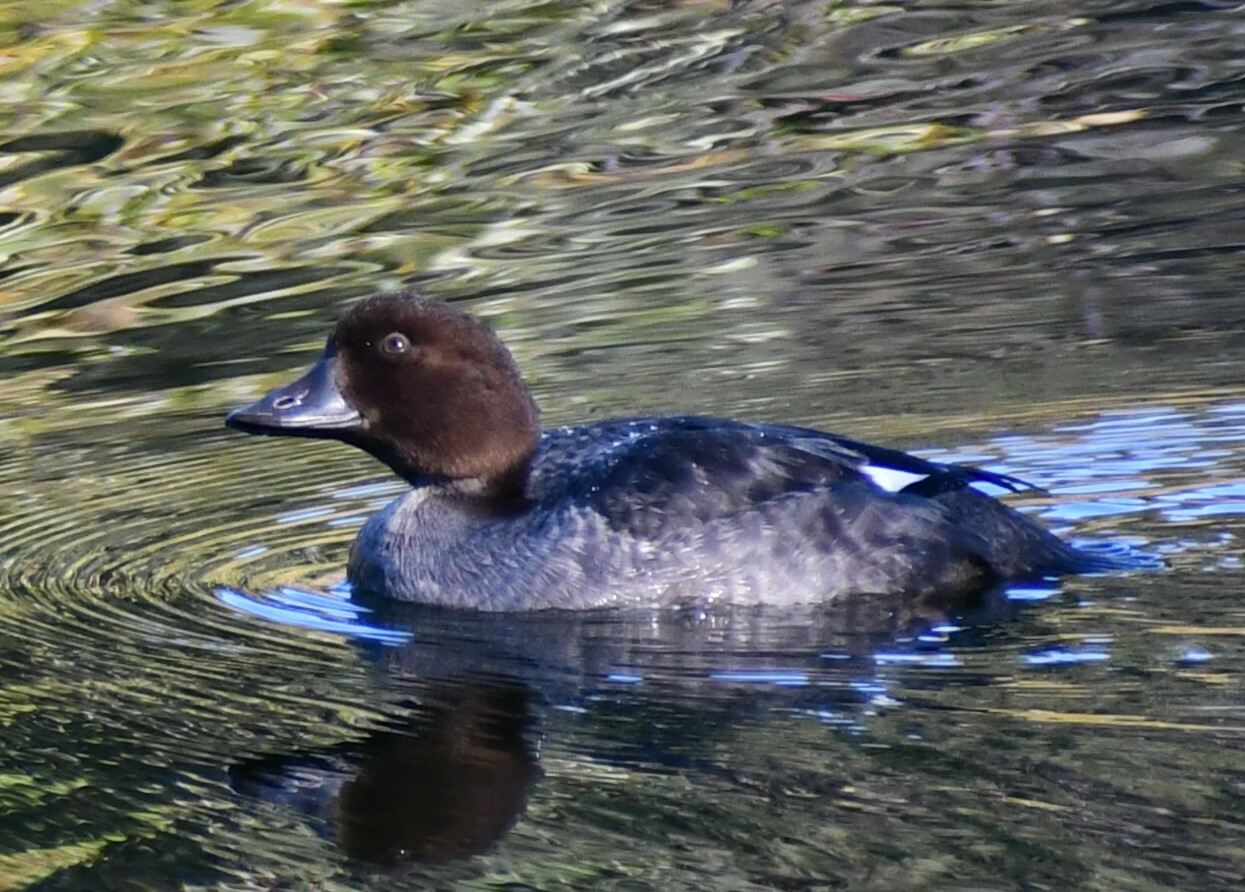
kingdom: Animalia
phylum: Chordata
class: Aves
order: Anseriformes
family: Anatidae
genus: Bucephala
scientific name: Bucephala clangula
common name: Common goldeneye
